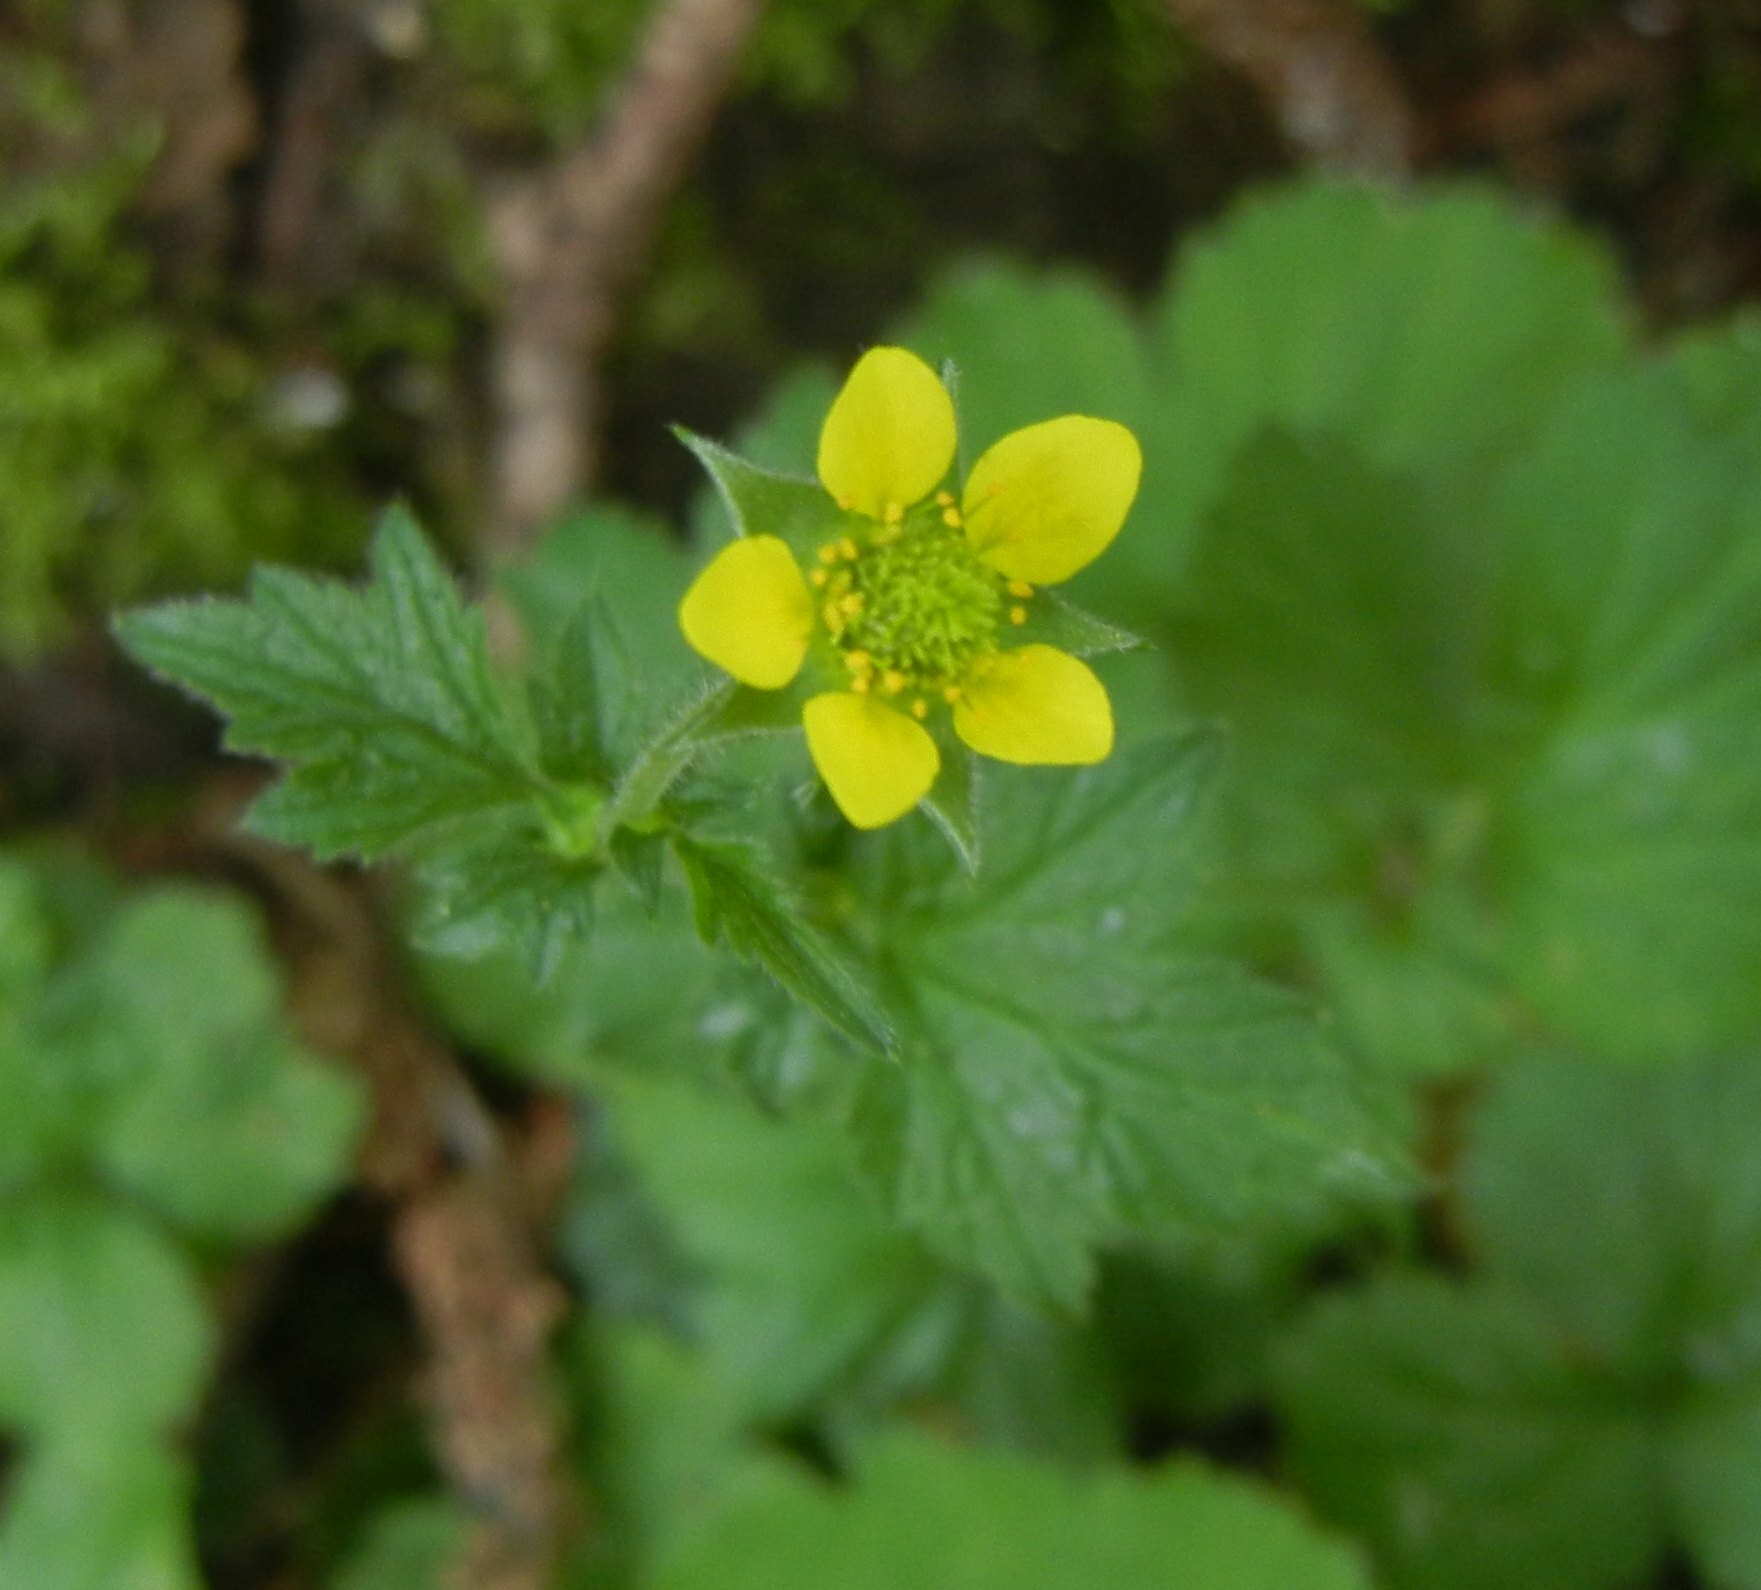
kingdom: Plantae
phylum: Tracheophyta
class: Magnoliopsida
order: Rosales
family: Rosaceae
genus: Geum
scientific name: Geum urbanum
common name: Wood avens
